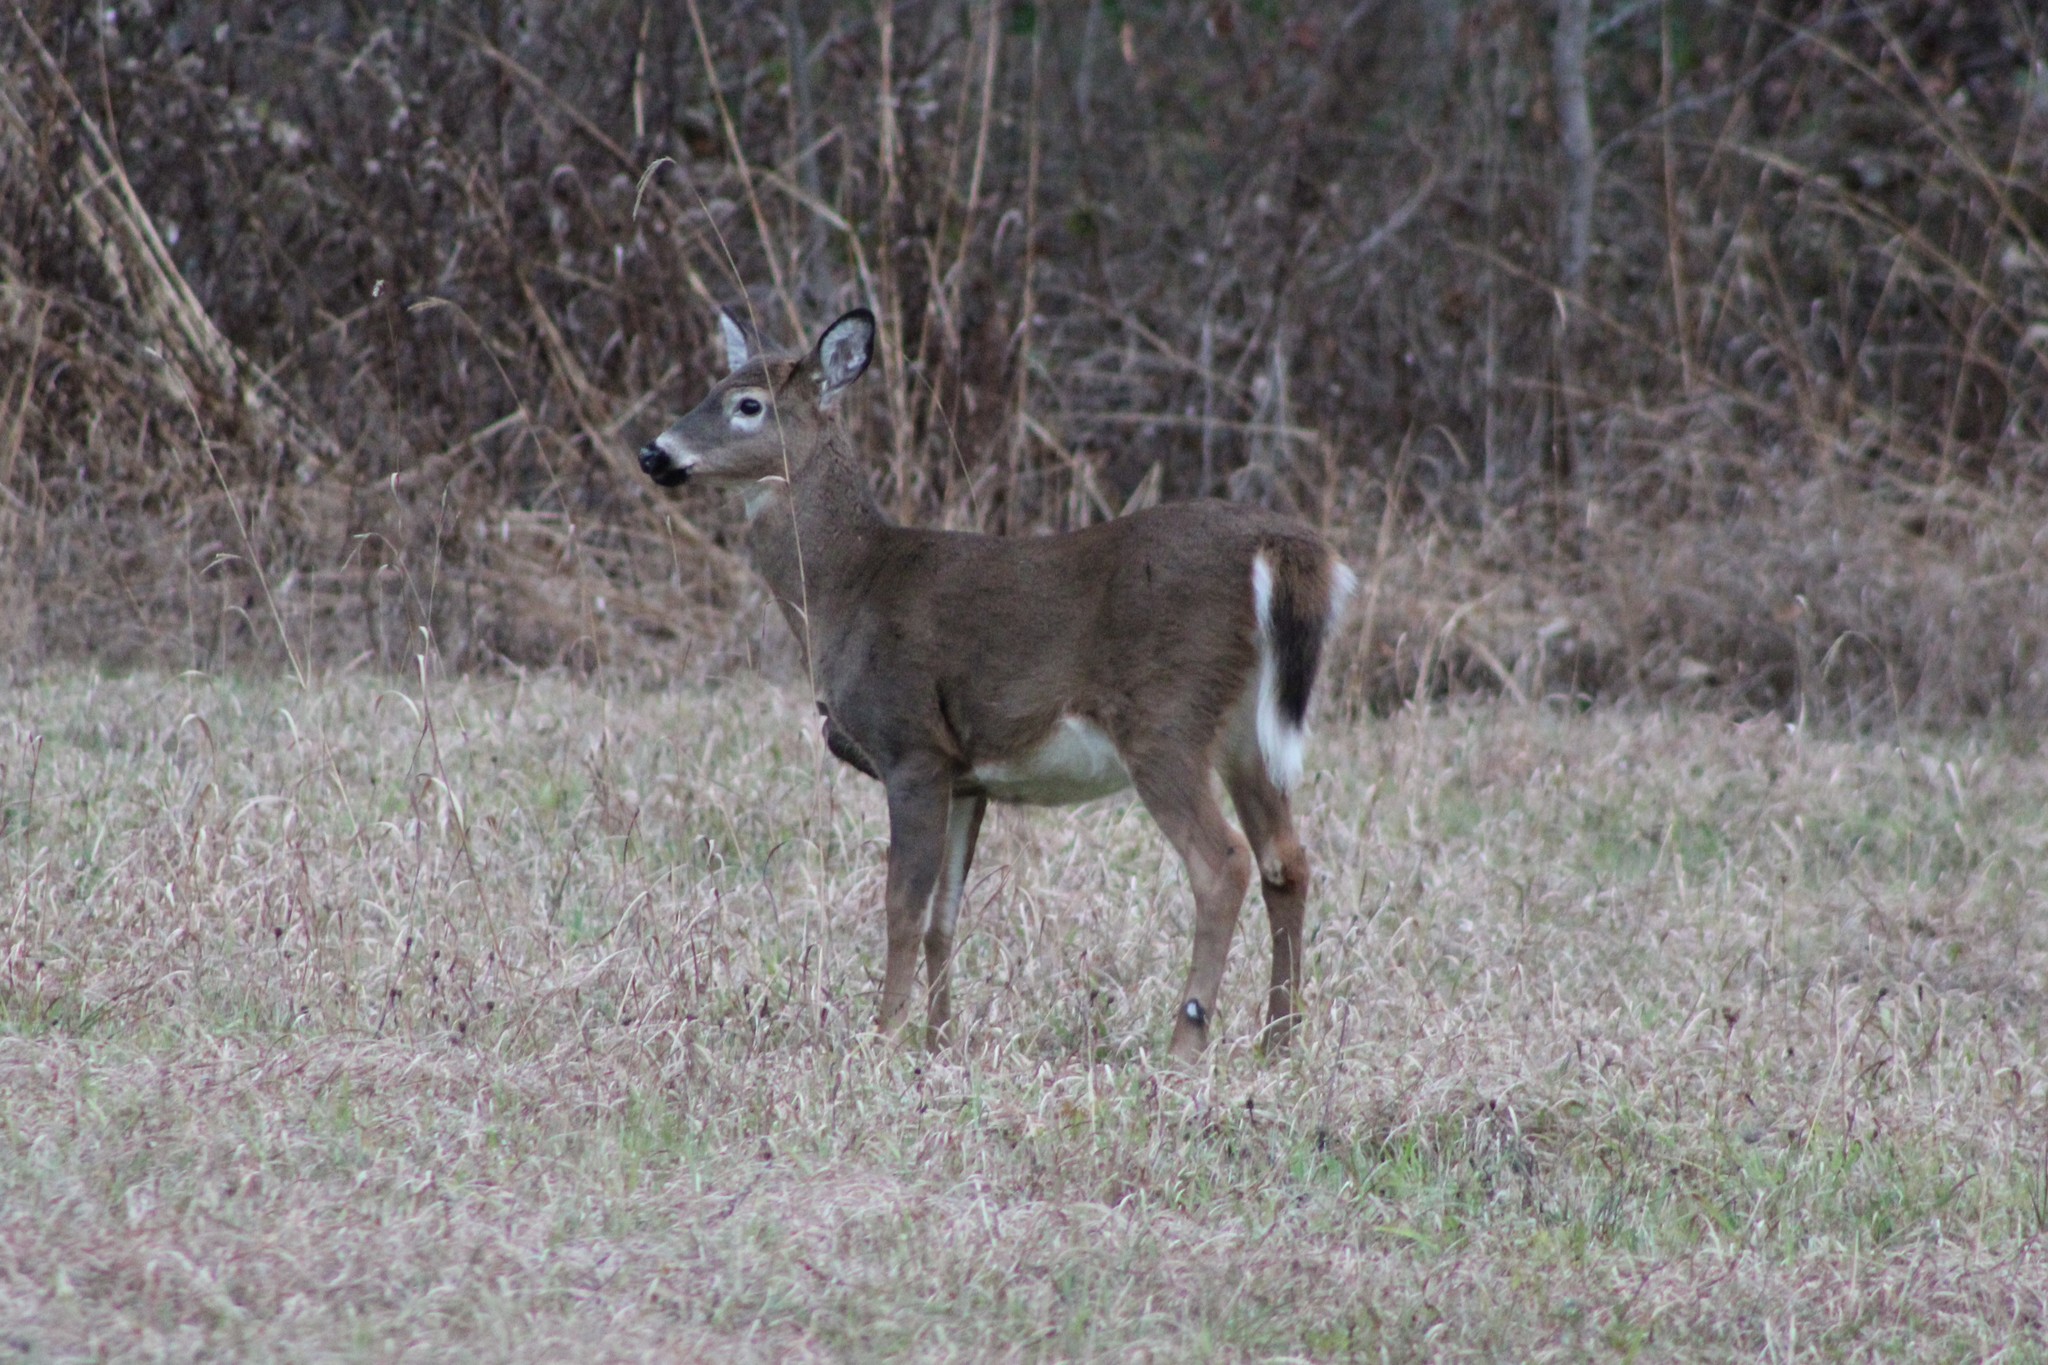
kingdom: Animalia
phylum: Chordata
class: Mammalia
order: Artiodactyla
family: Cervidae
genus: Odocoileus
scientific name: Odocoileus virginianus
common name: White-tailed deer
